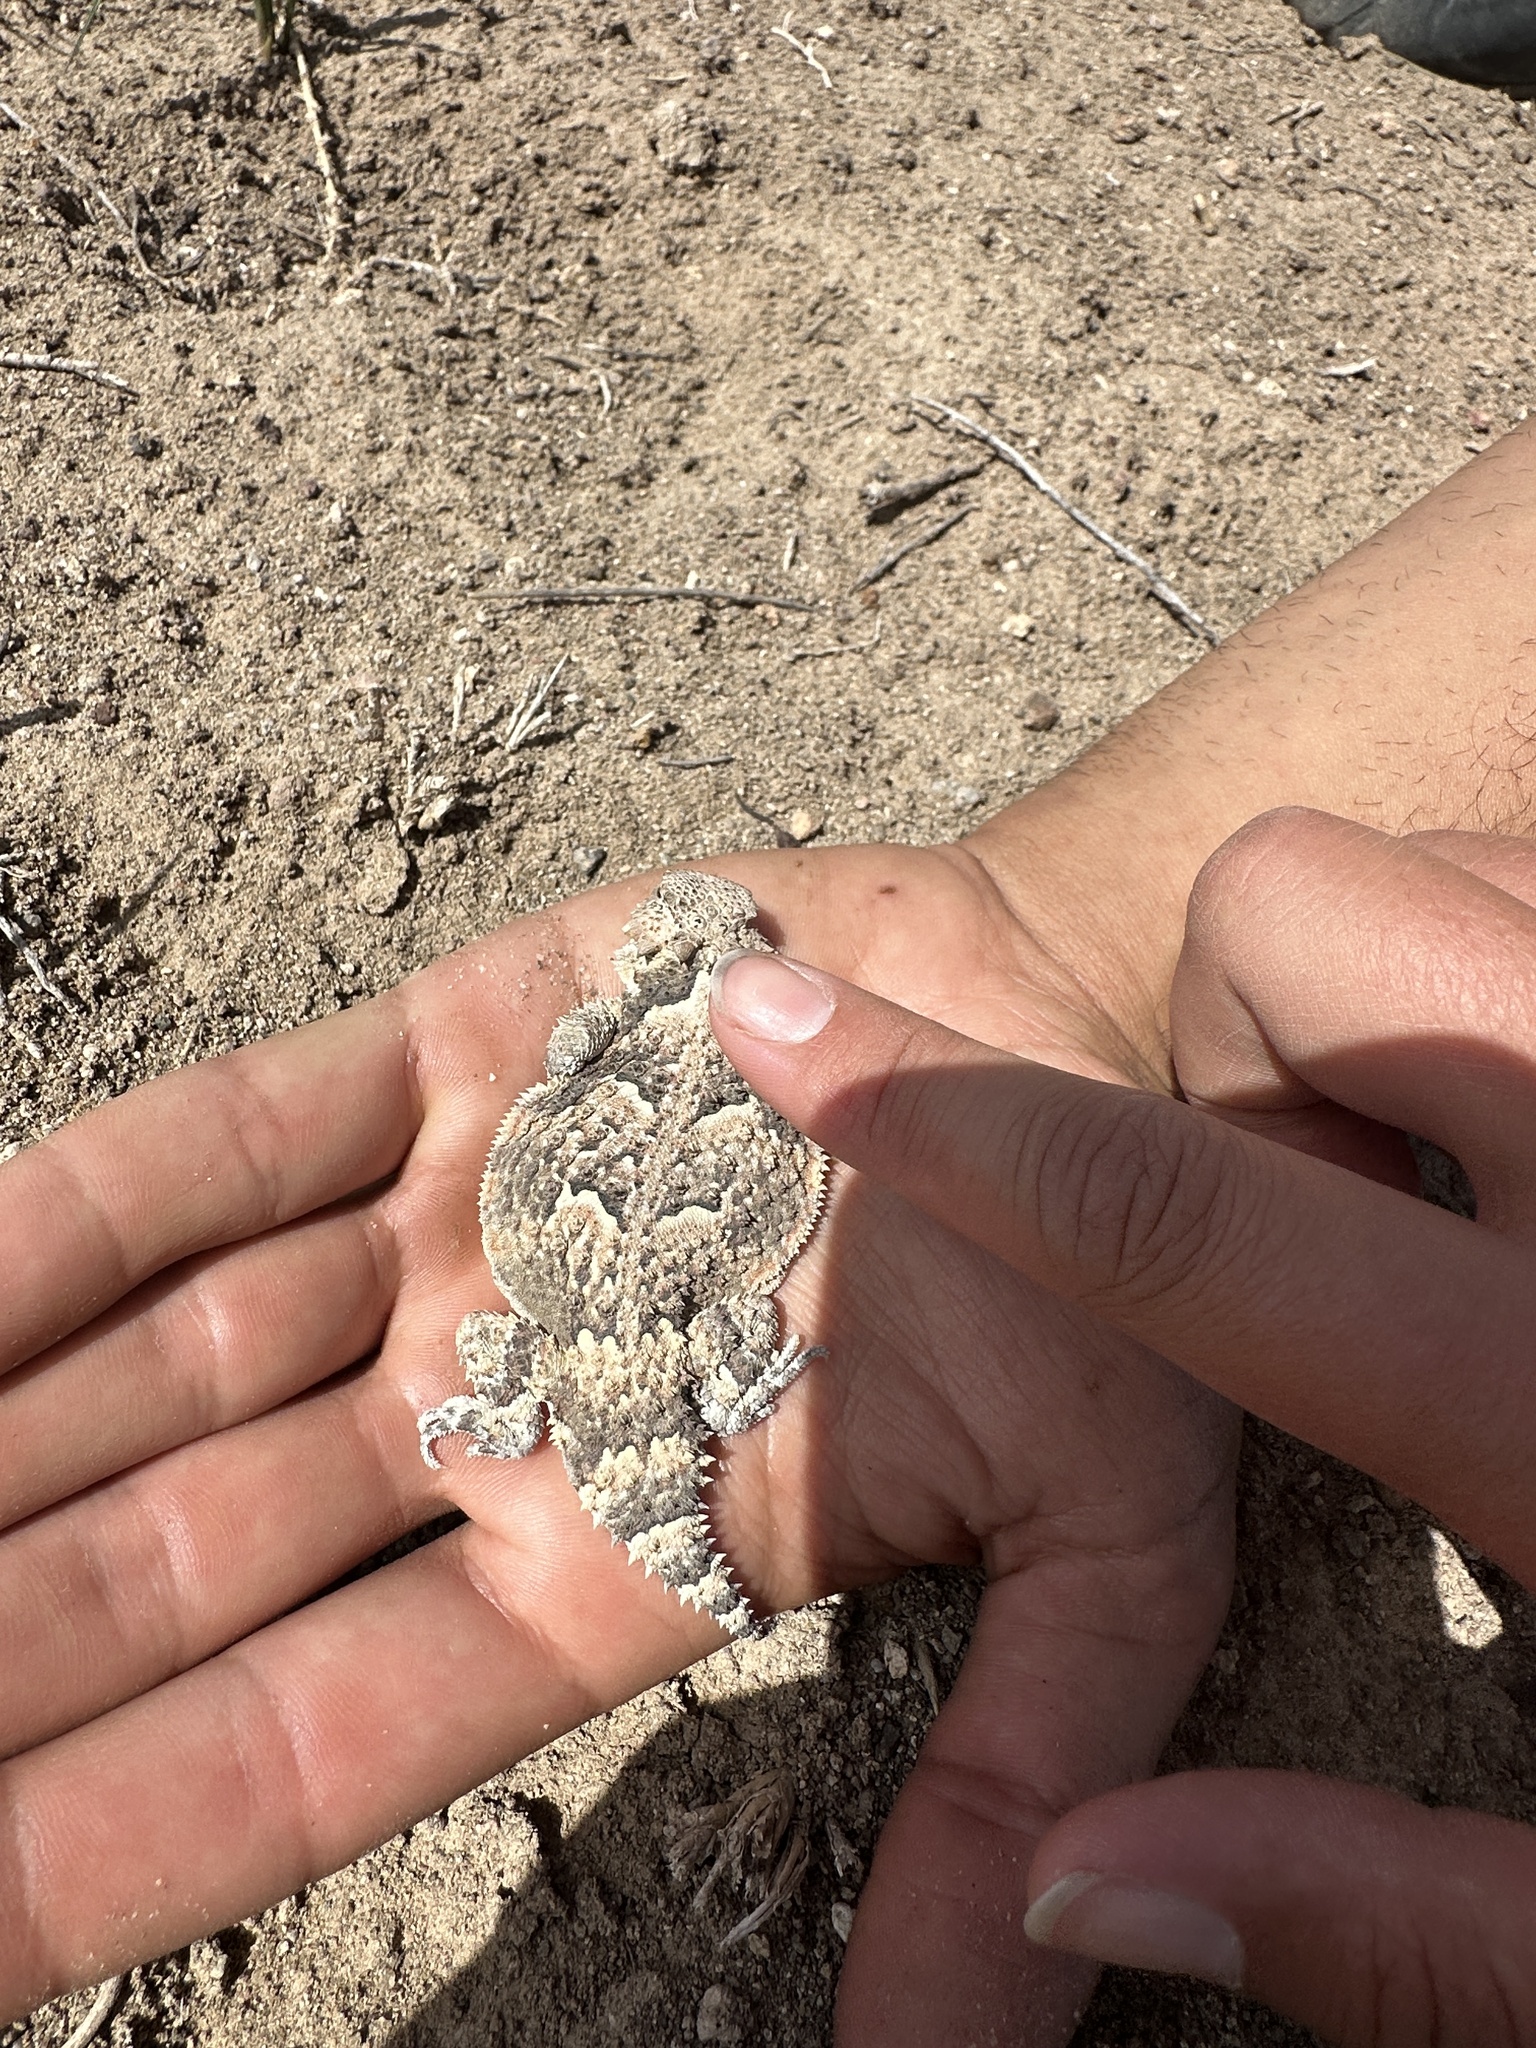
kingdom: Animalia
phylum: Chordata
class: Squamata
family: Phrynosomatidae
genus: Phrynosoma
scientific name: Phrynosoma platyrhinos
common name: Desert horned lizard
